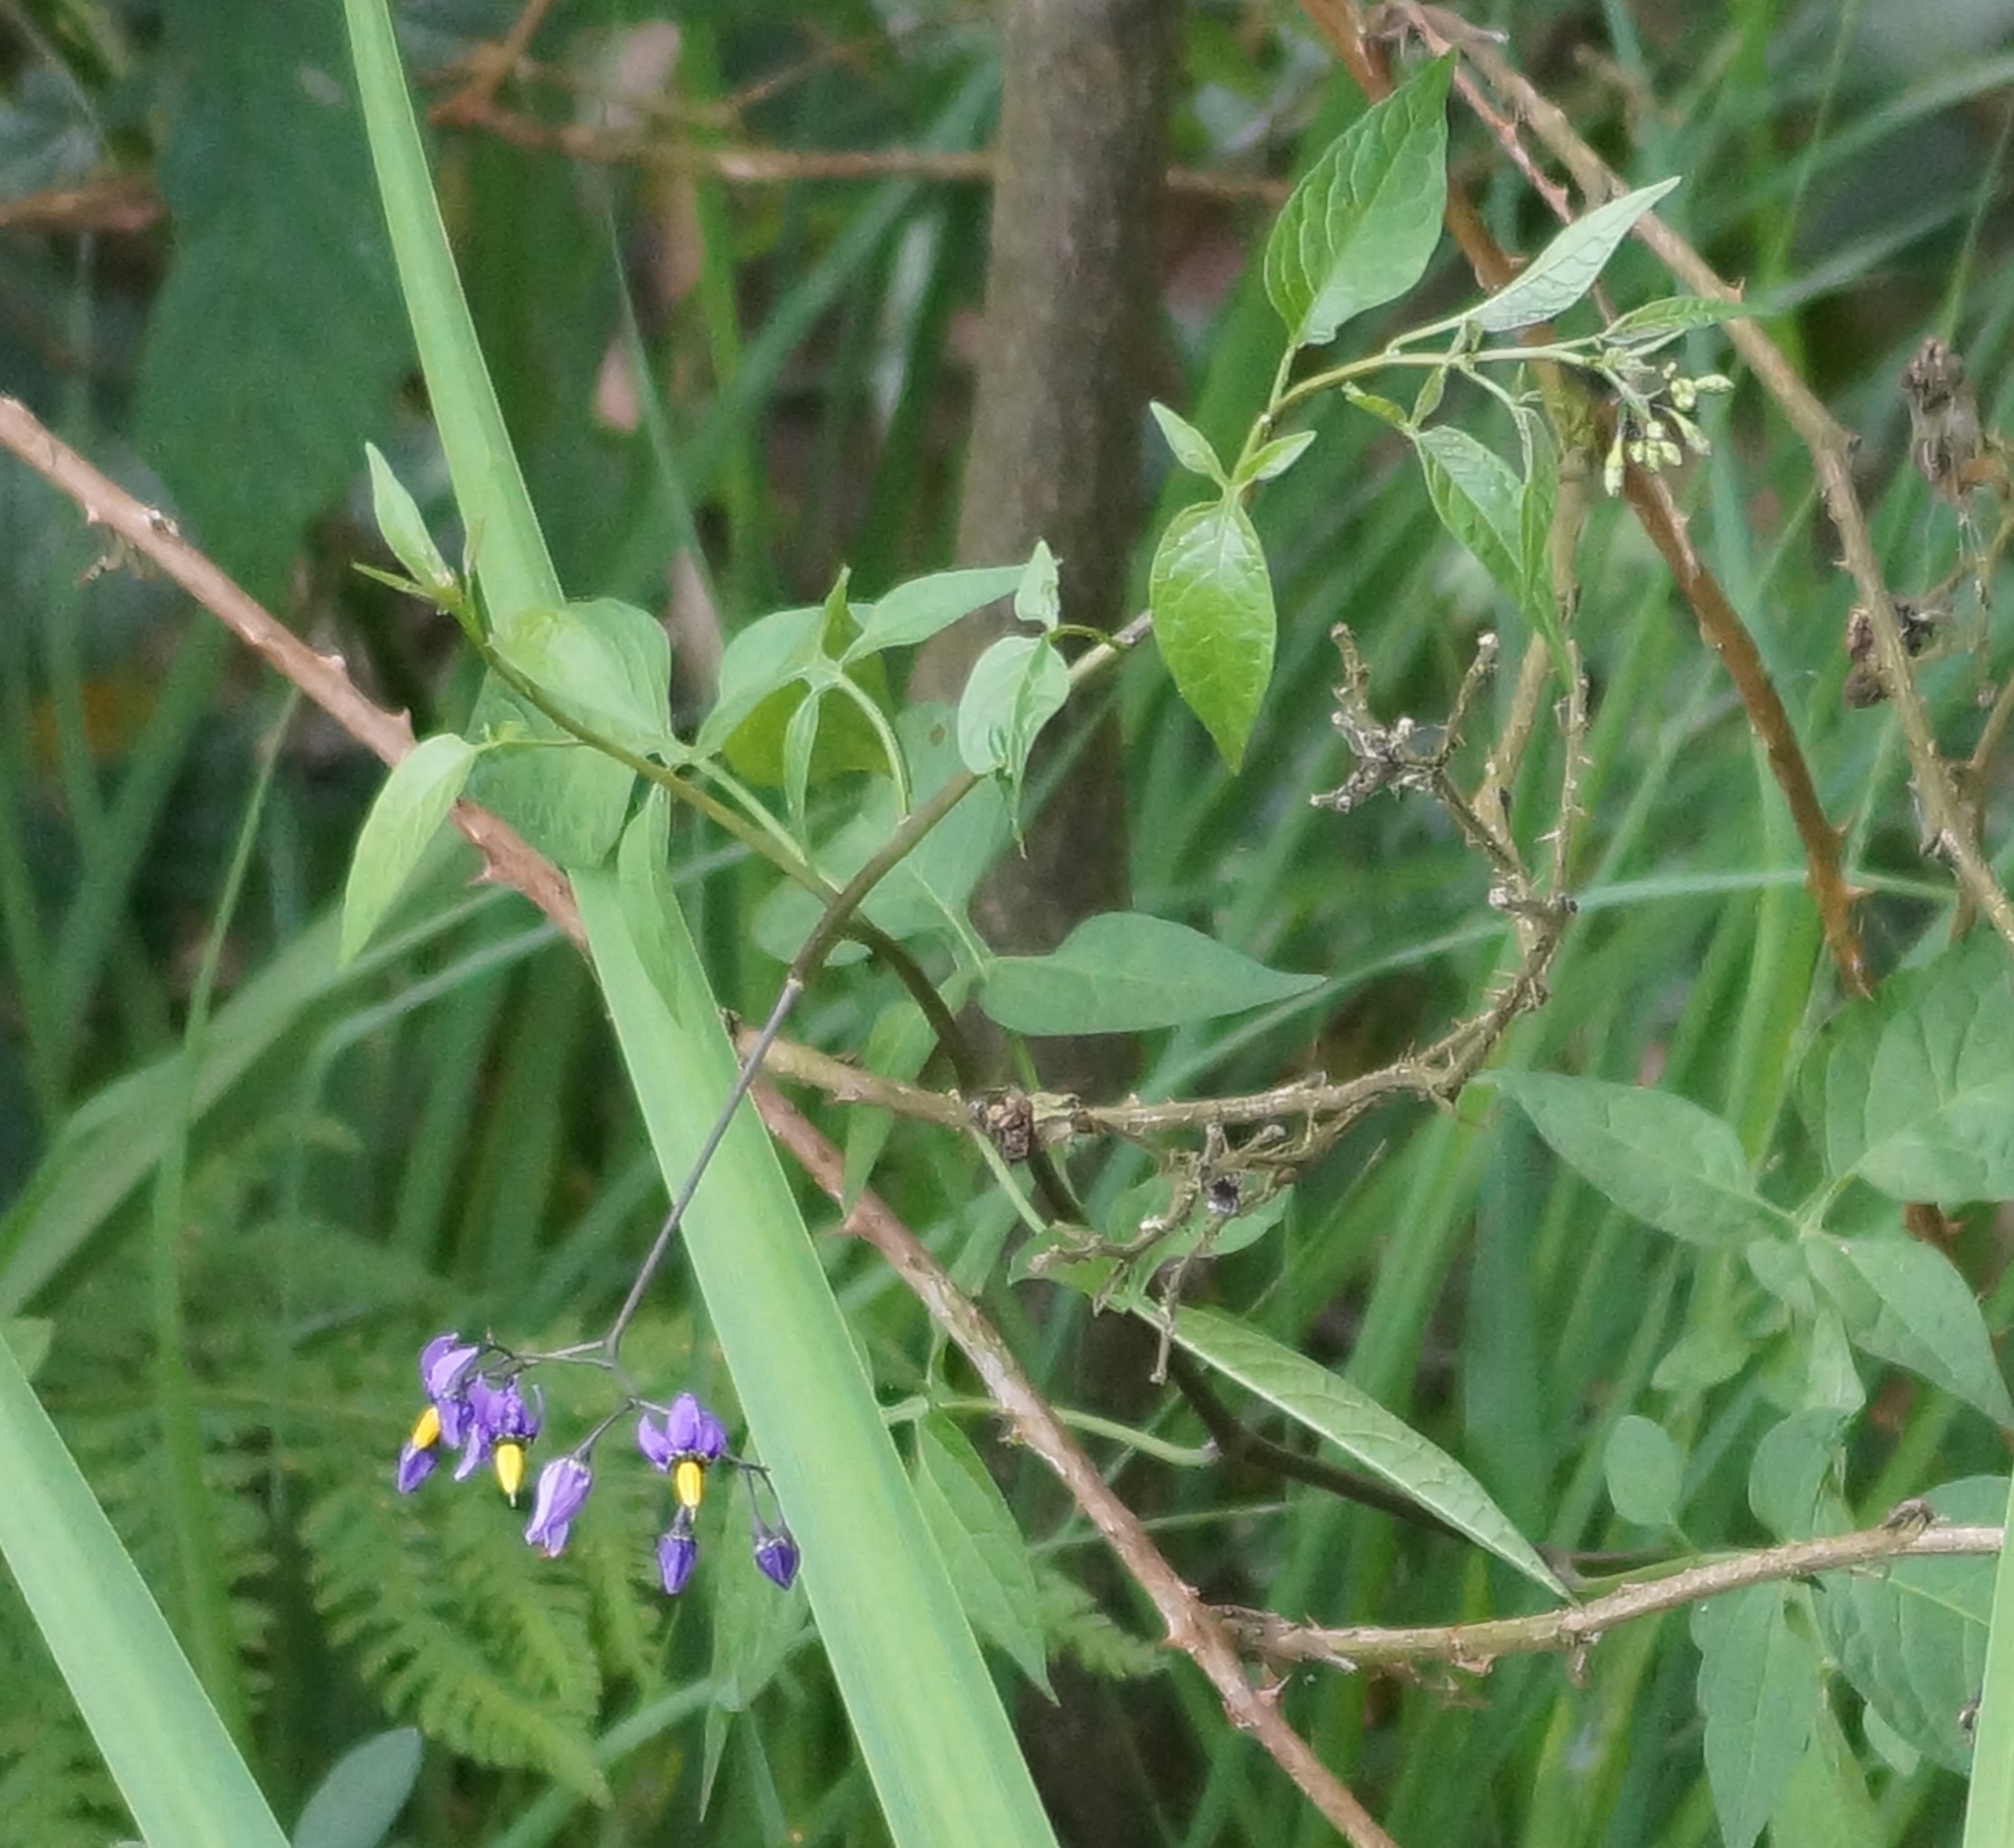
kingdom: Plantae
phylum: Tracheophyta
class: Magnoliopsida
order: Solanales
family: Solanaceae
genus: Solanum
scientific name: Solanum dulcamara
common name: Climbing nightshade
